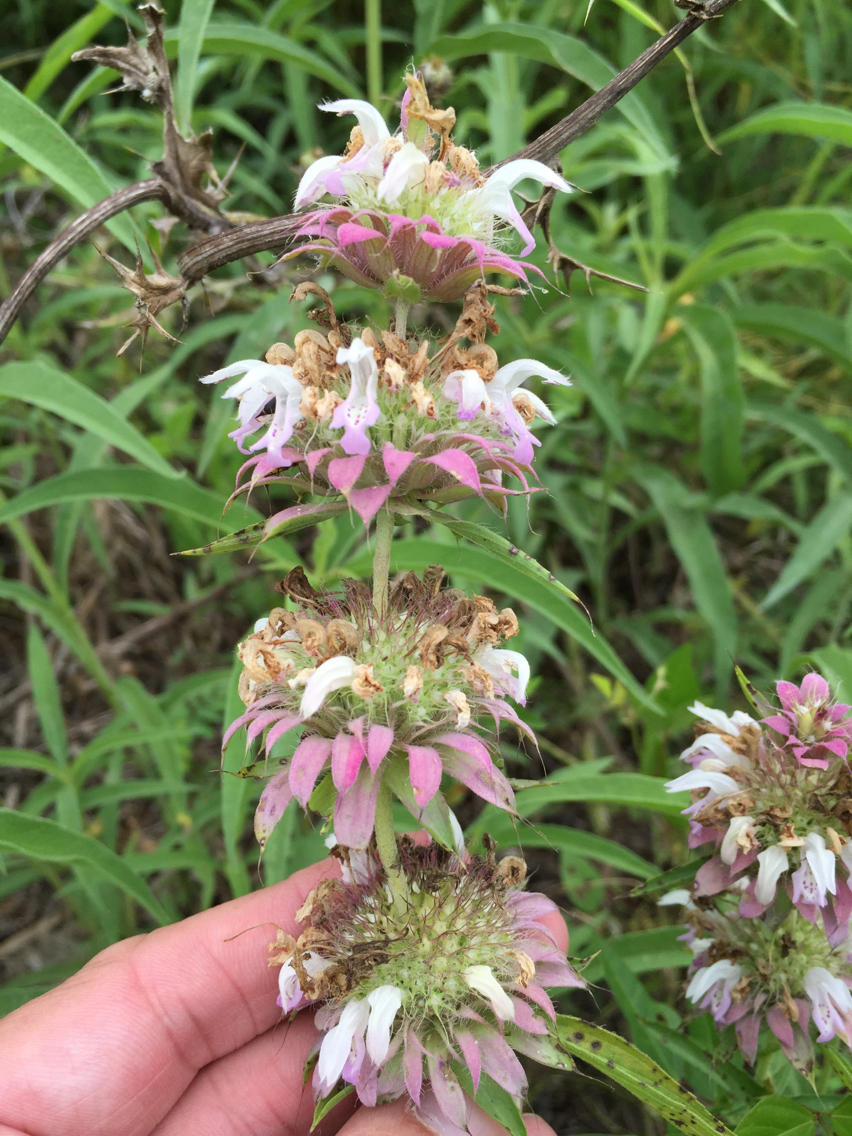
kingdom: Plantae
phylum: Tracheophyta
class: Magnoliopsida
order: Lamiales
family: Lamiaceae
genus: Monarda
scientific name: Monarda citriodora
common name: Lemon beebalm
